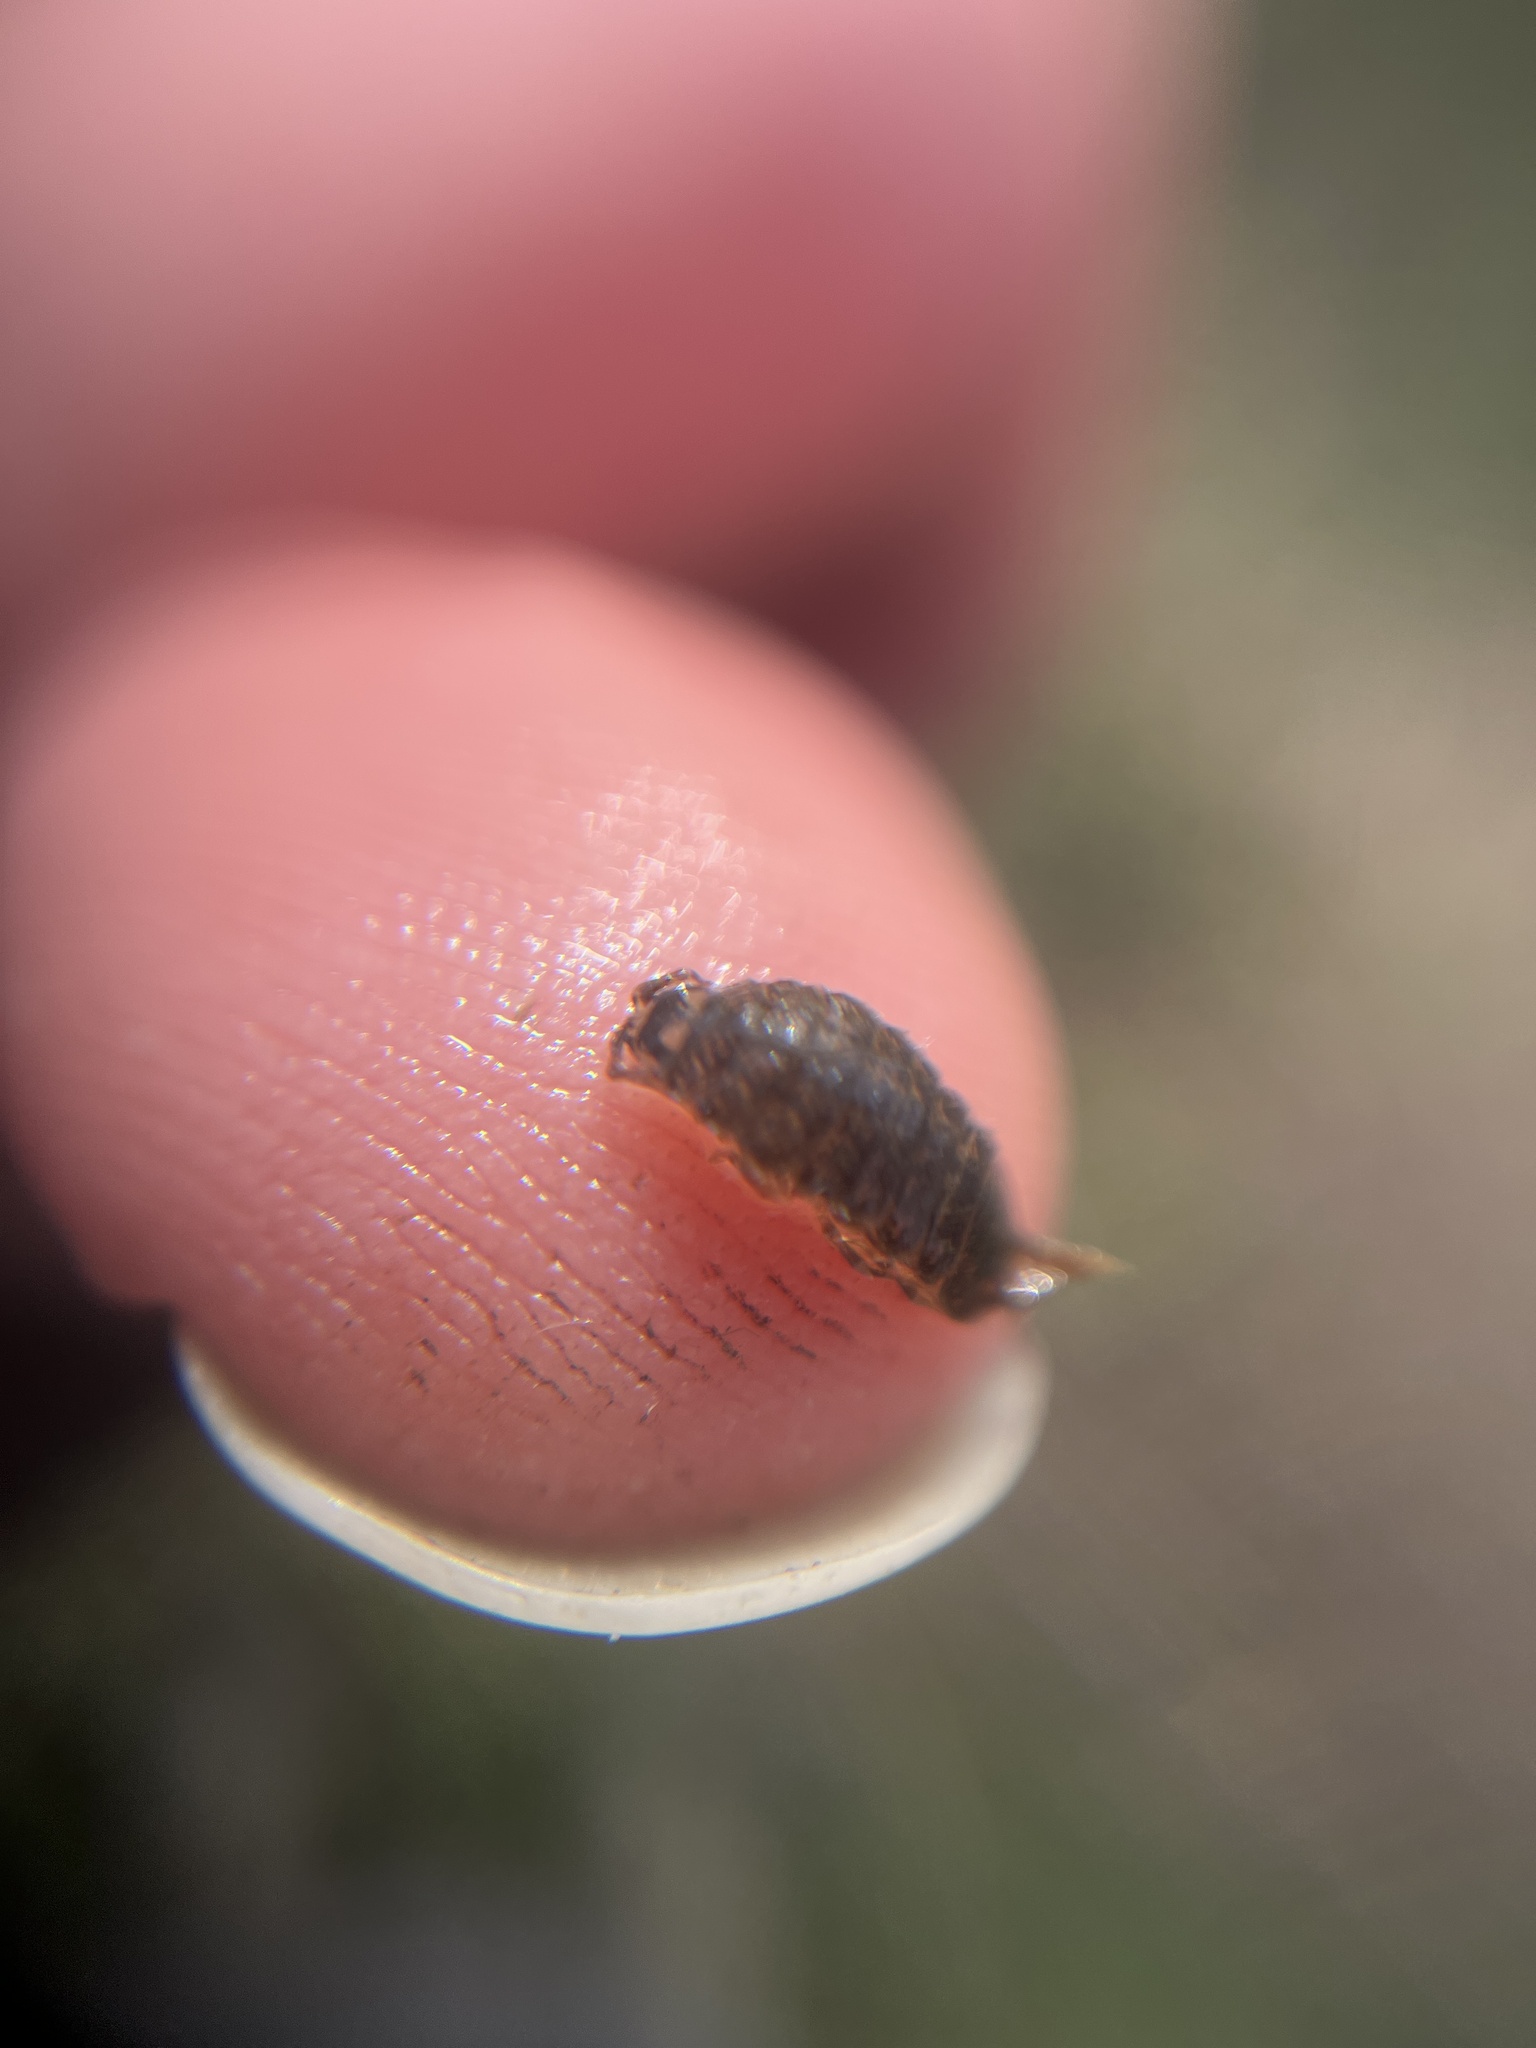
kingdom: Animalia
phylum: Arthropoda
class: Malacostraca
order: Isopoda
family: Asellidae
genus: Asellus
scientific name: Asellus aquaticus
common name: Water hog lice/slaters
